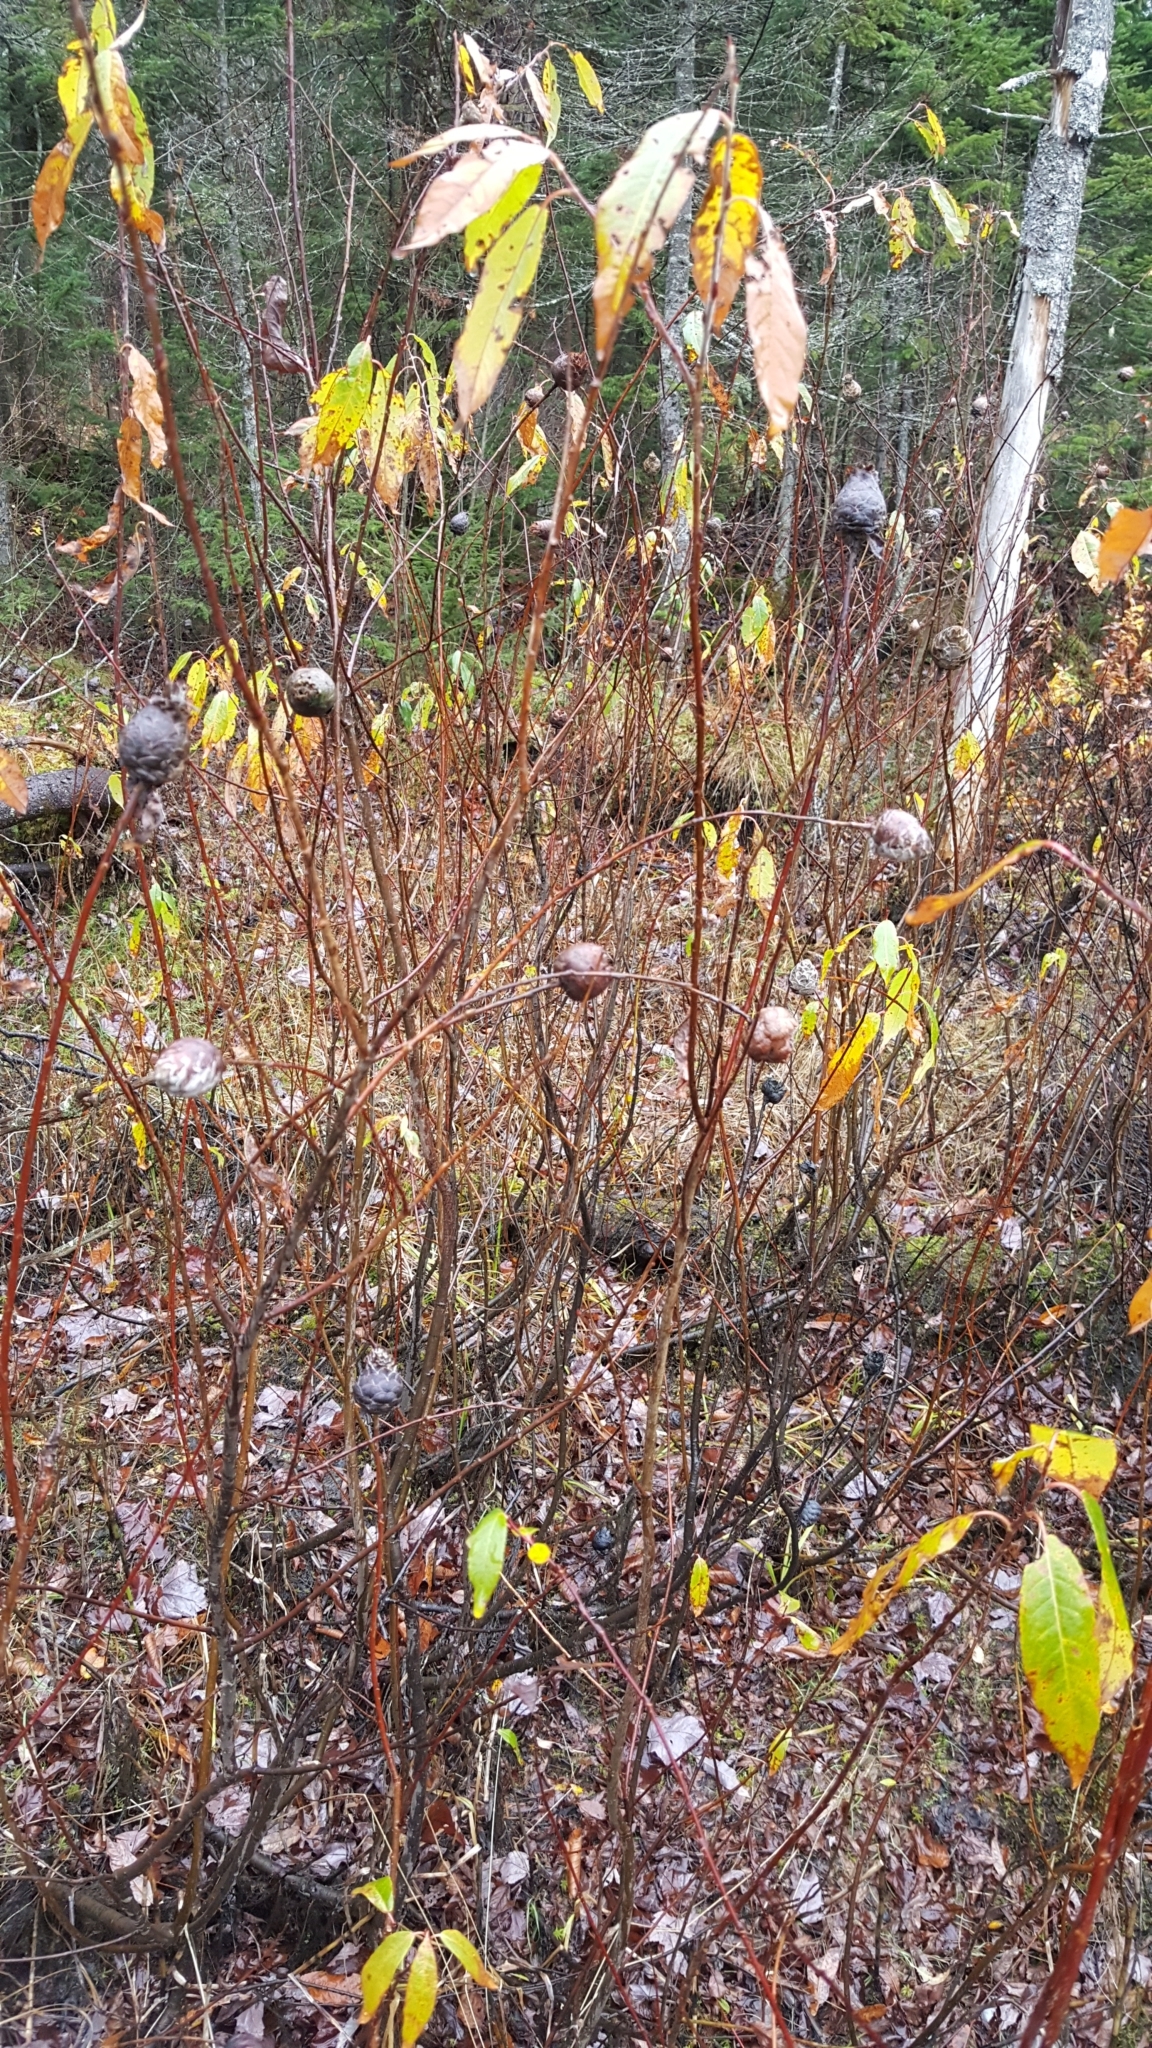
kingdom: Animalia
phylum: Arthropoda
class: Insecta
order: Diptera
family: Cecidomyiidae
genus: Rabdophaga
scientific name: Rabdophaga strobiloides
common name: Willow pinecone gall midge
